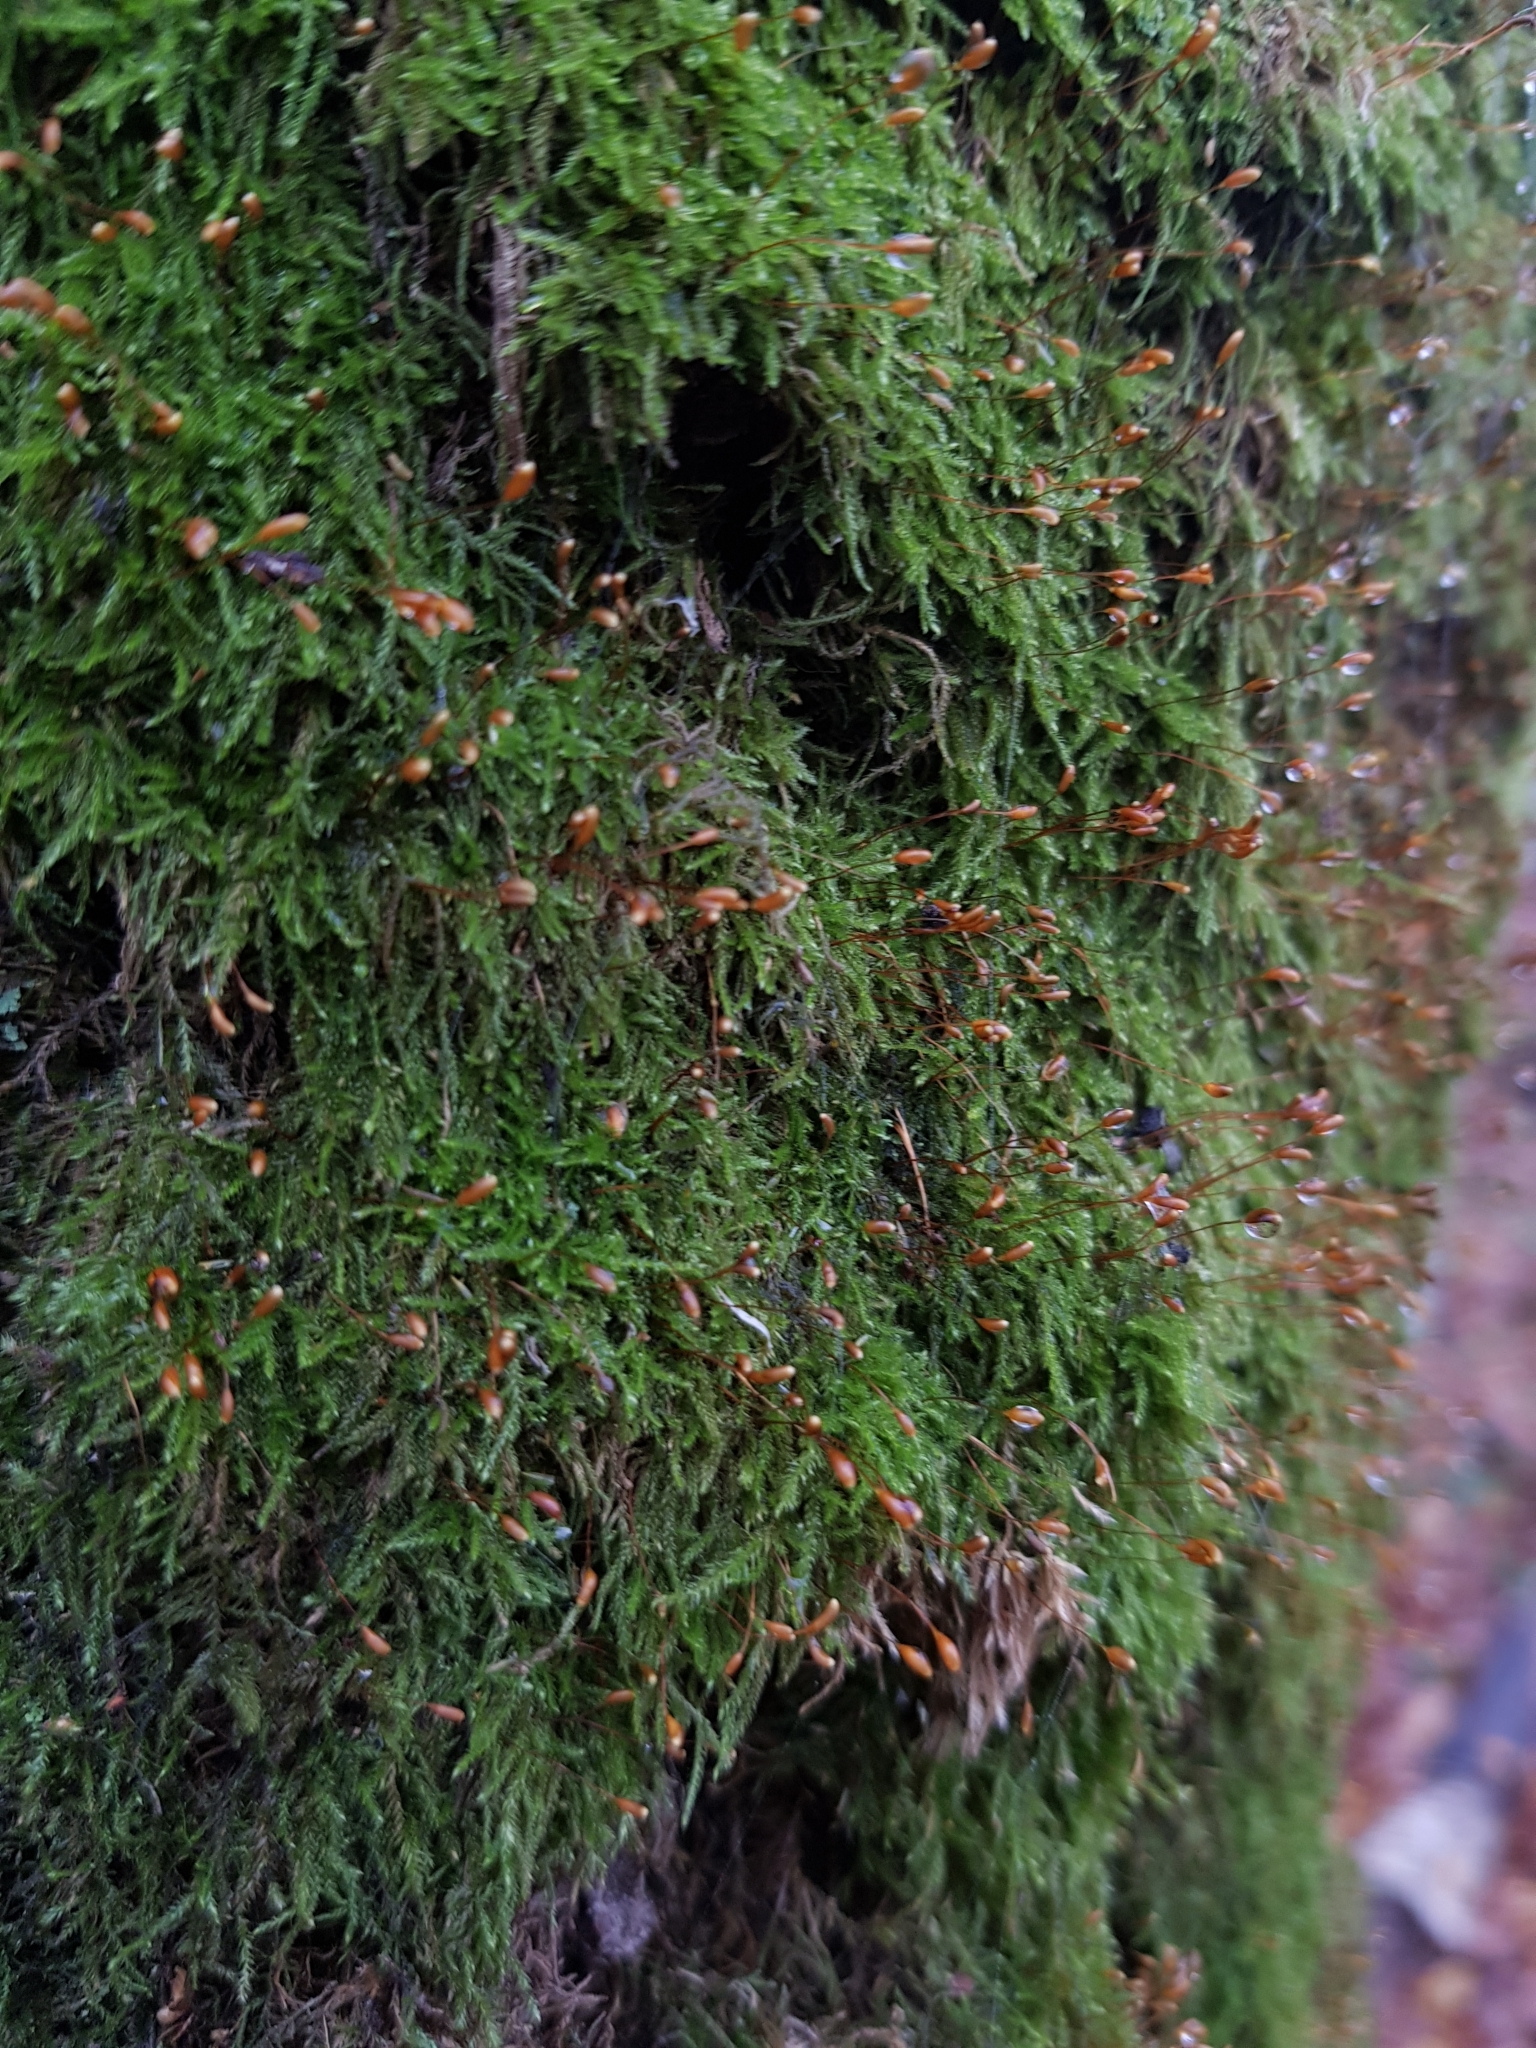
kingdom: Plantae
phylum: Bryophyta
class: Bryopsida
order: Hypnales
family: Hypnaceae
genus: Hypnum
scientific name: Hypnum cupressiforme
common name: Cypress-leaved plait-moss
